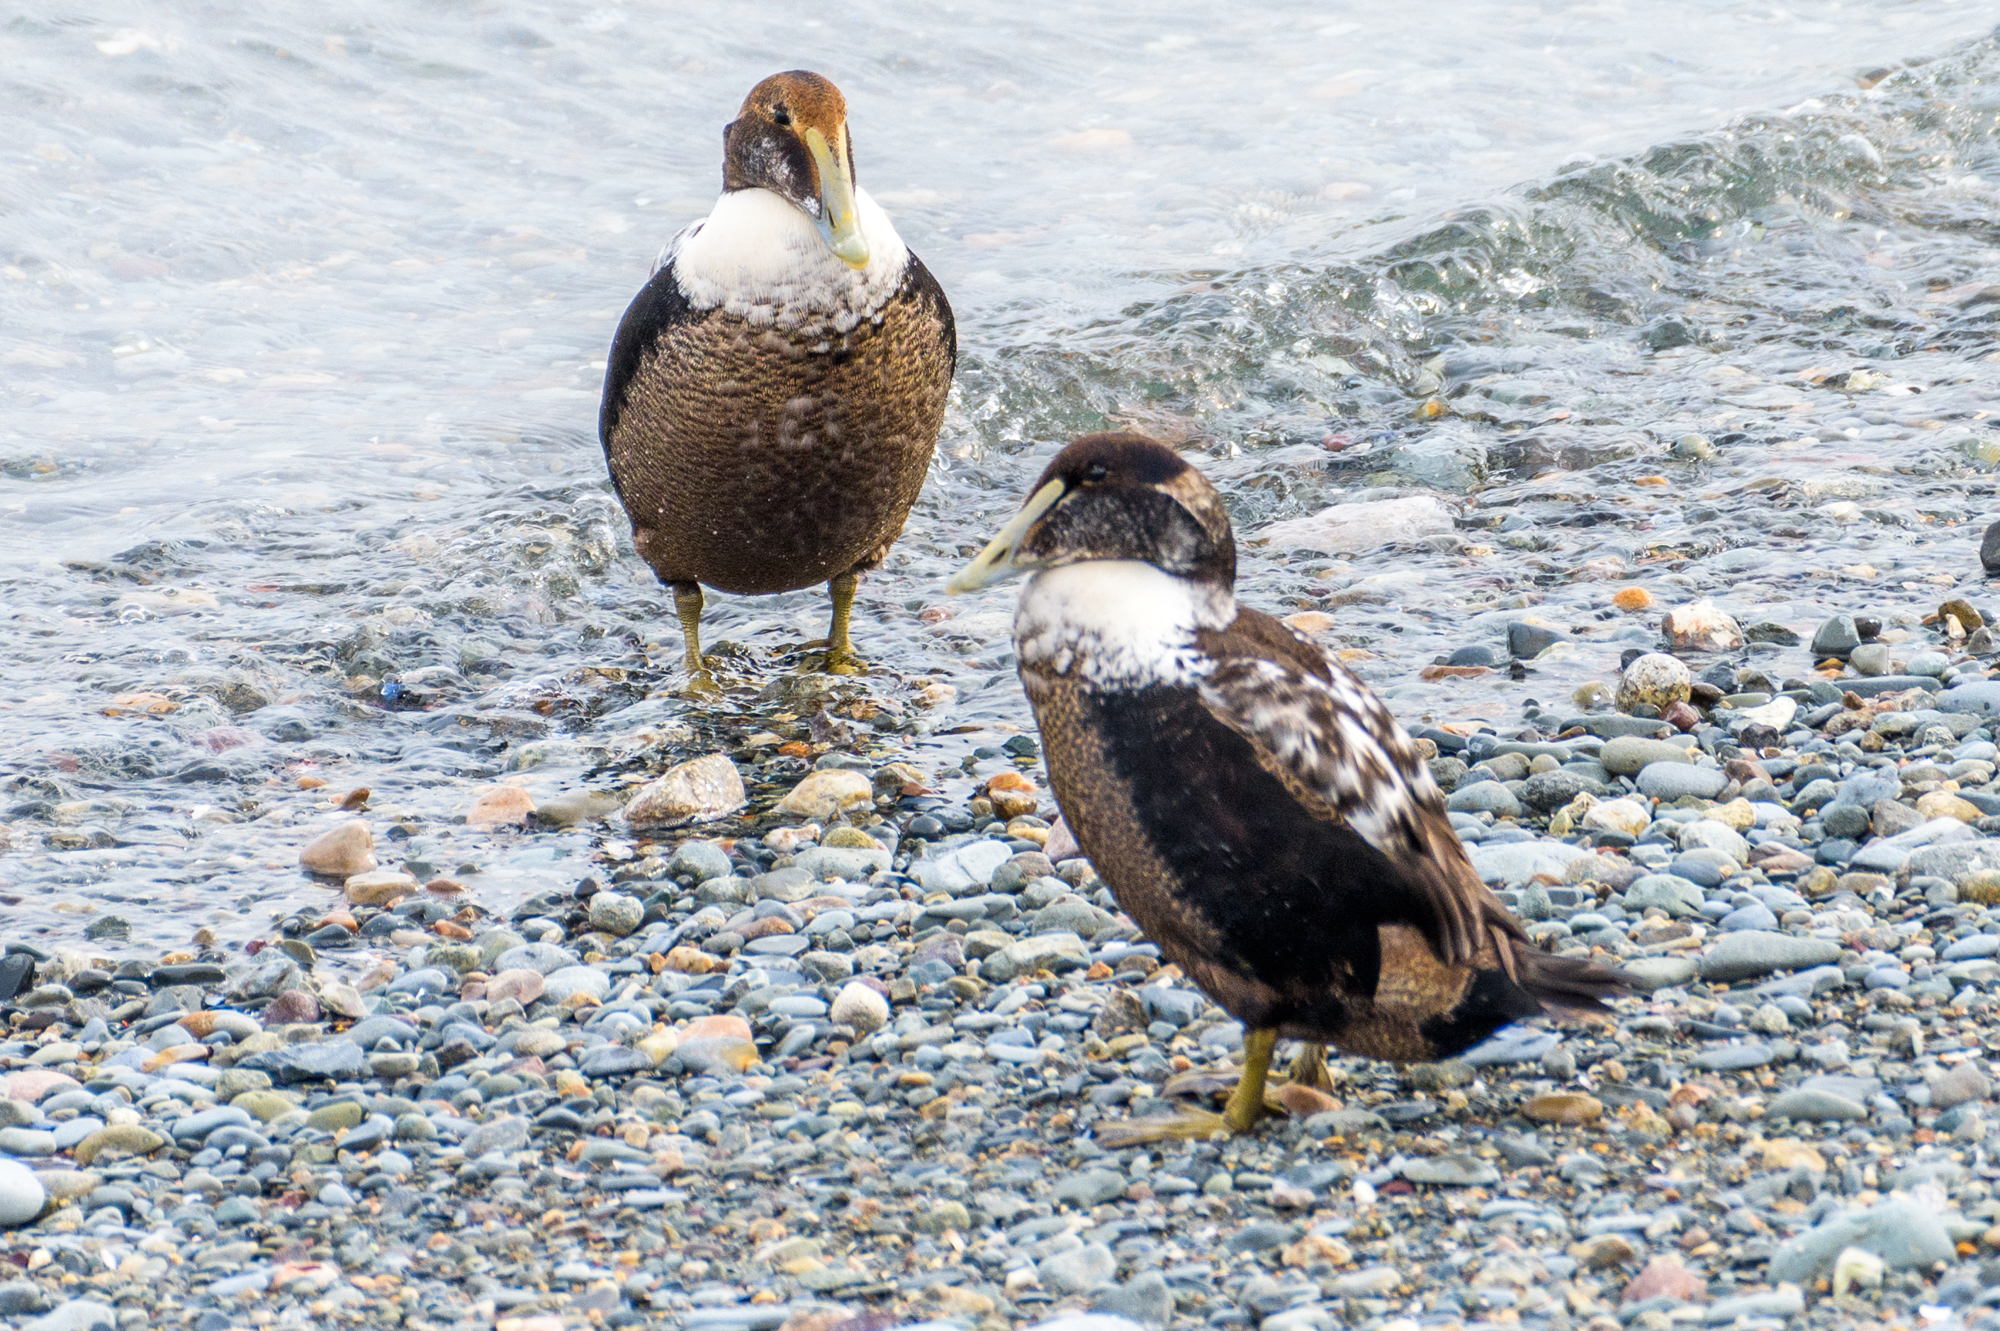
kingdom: Animalia
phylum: Chordata
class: Aves
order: Anseriformes
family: Anatidae
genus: Somateria
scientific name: Somateria mollissima
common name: Common eider
